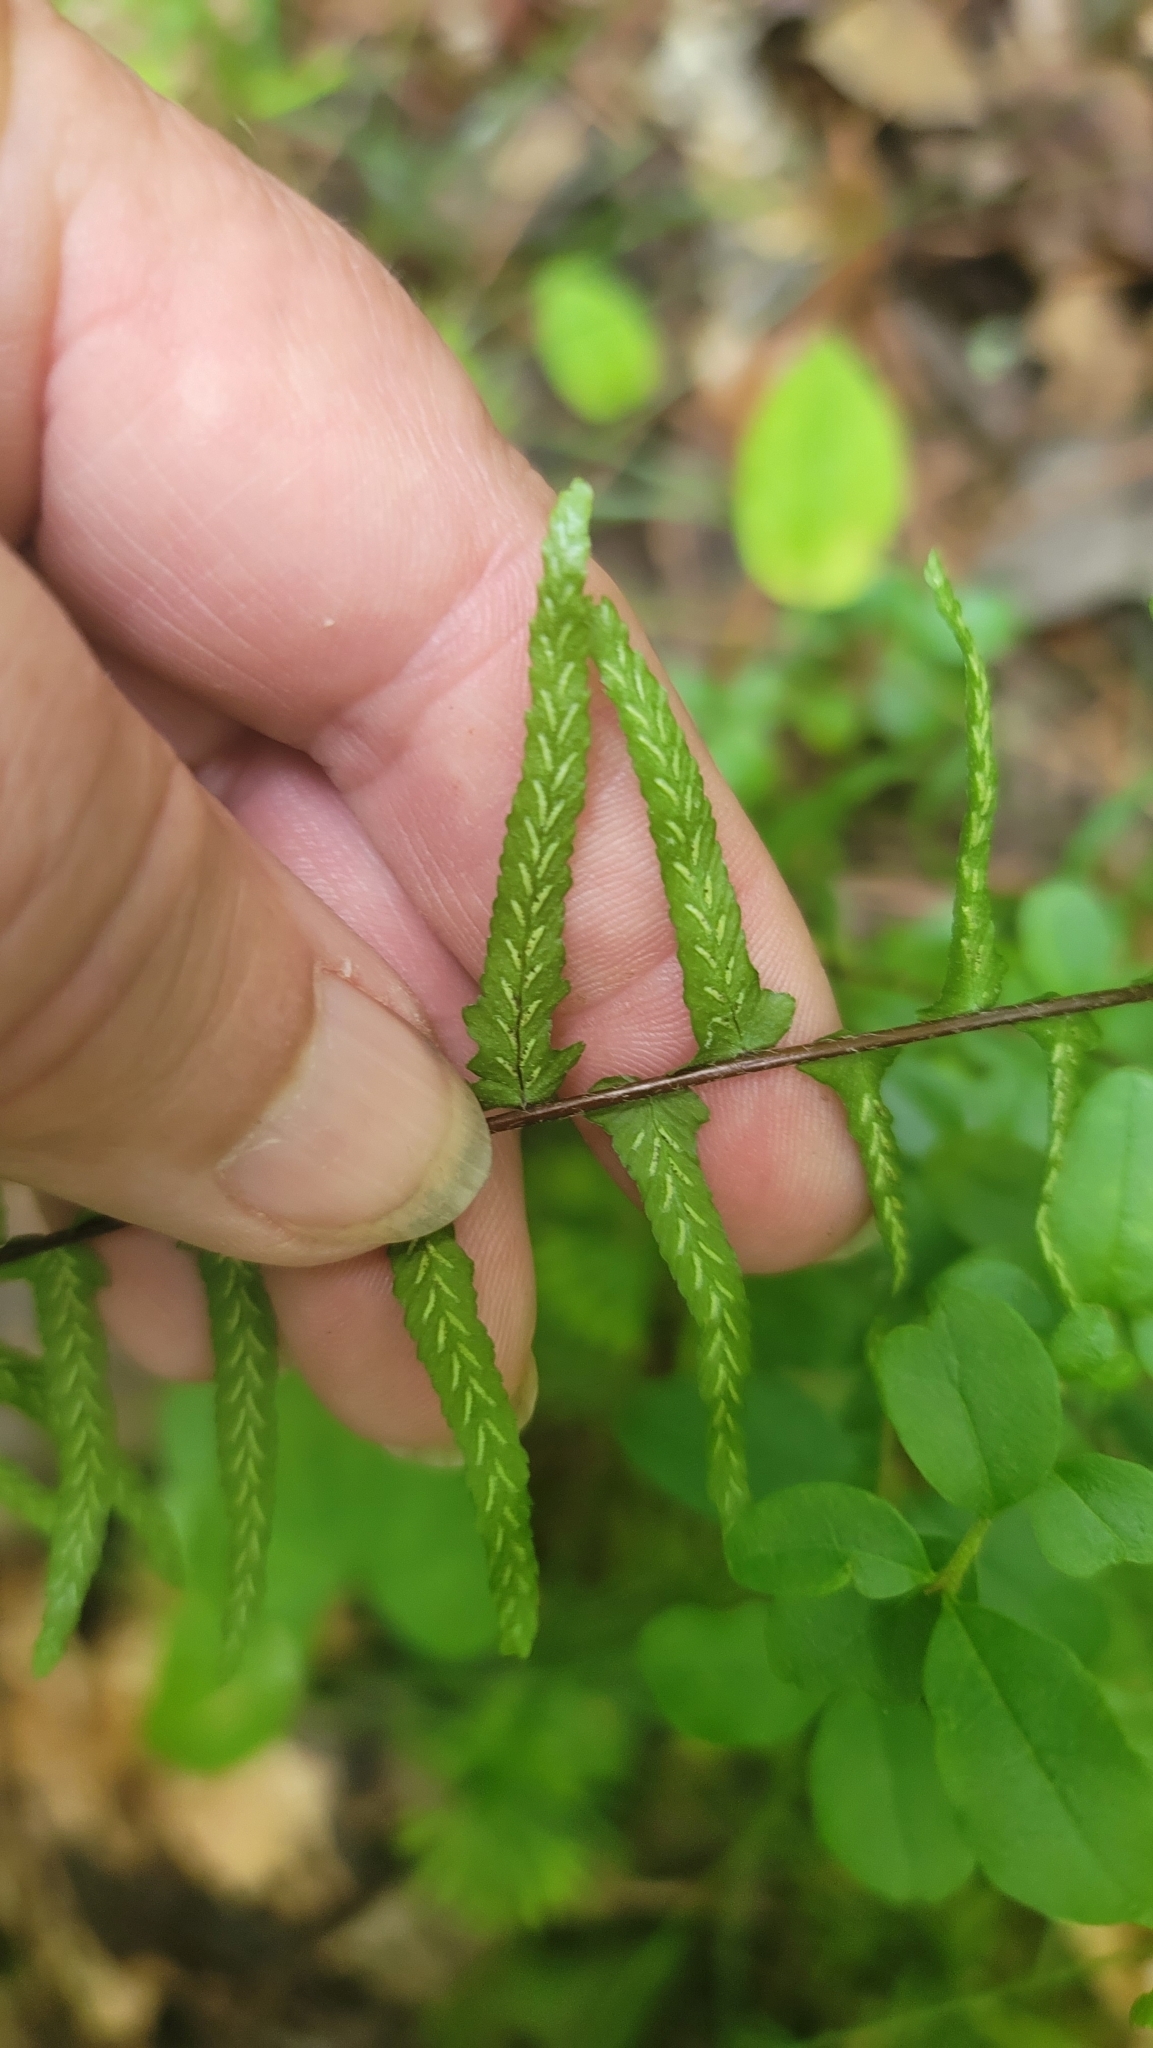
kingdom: Plantae
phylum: Tracheophyta
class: Polypodiopsida
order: Polypodiales
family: Aspleniaceae
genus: Asplenium
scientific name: Asplenium platyneuron
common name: Ebony spleenwort
